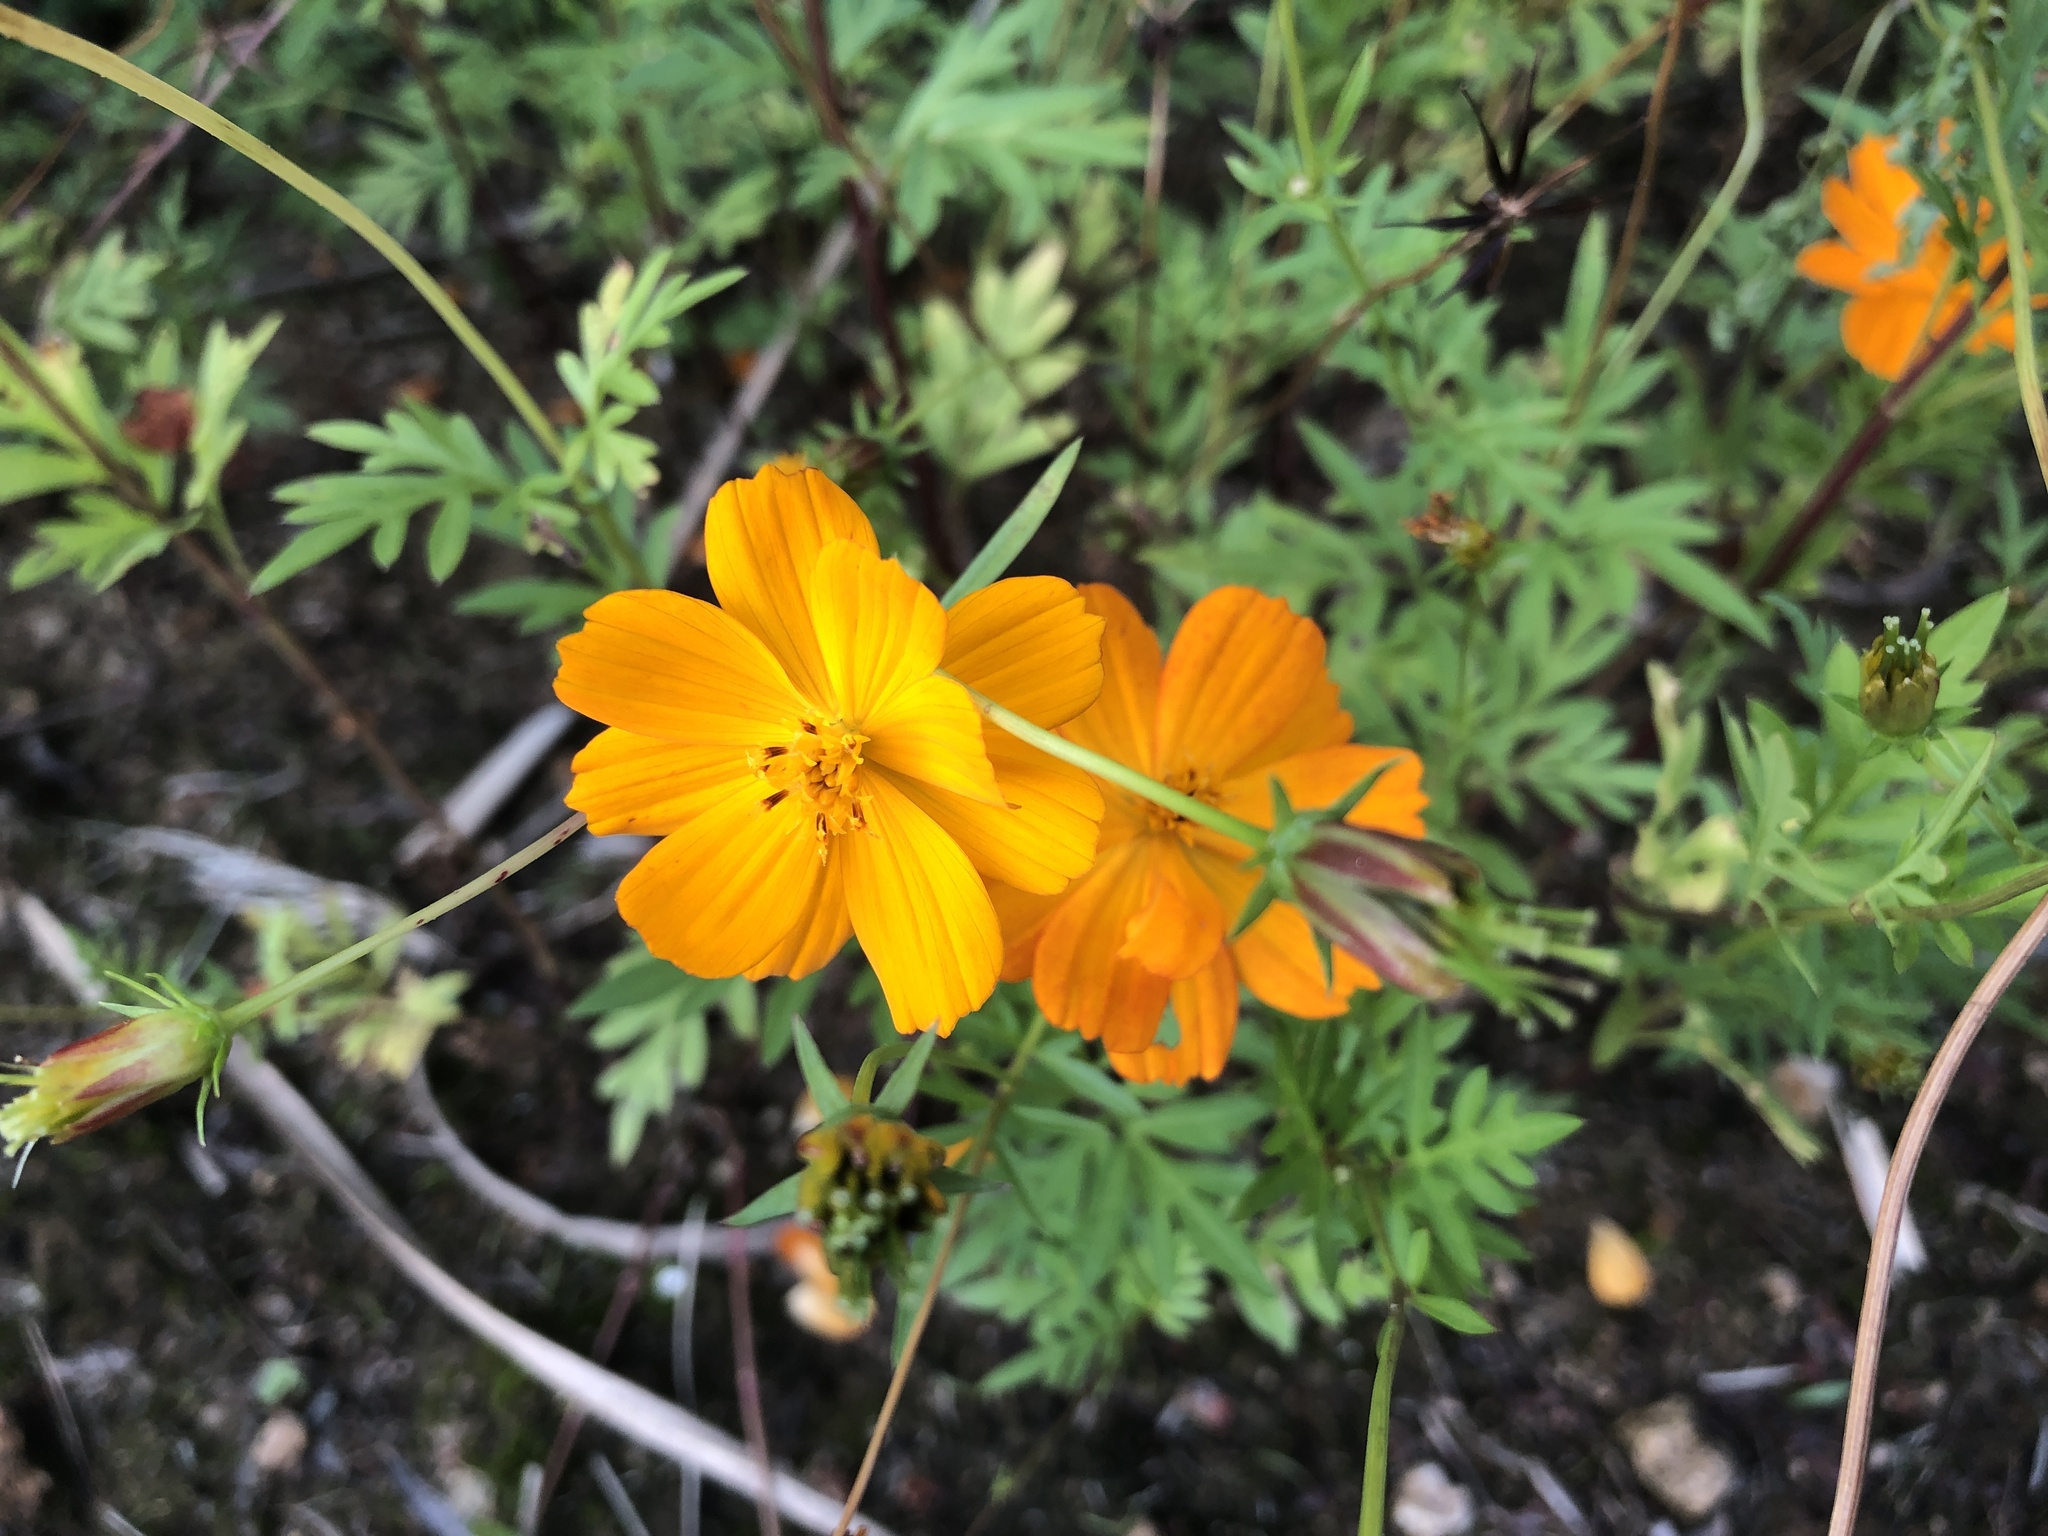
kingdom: Plantae
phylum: Tracheophyta
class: Magnoliopsida
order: Asterales
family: Asteraceae
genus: Cosmos
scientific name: Cosmos sulphureus
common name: Sulphur cosmos
